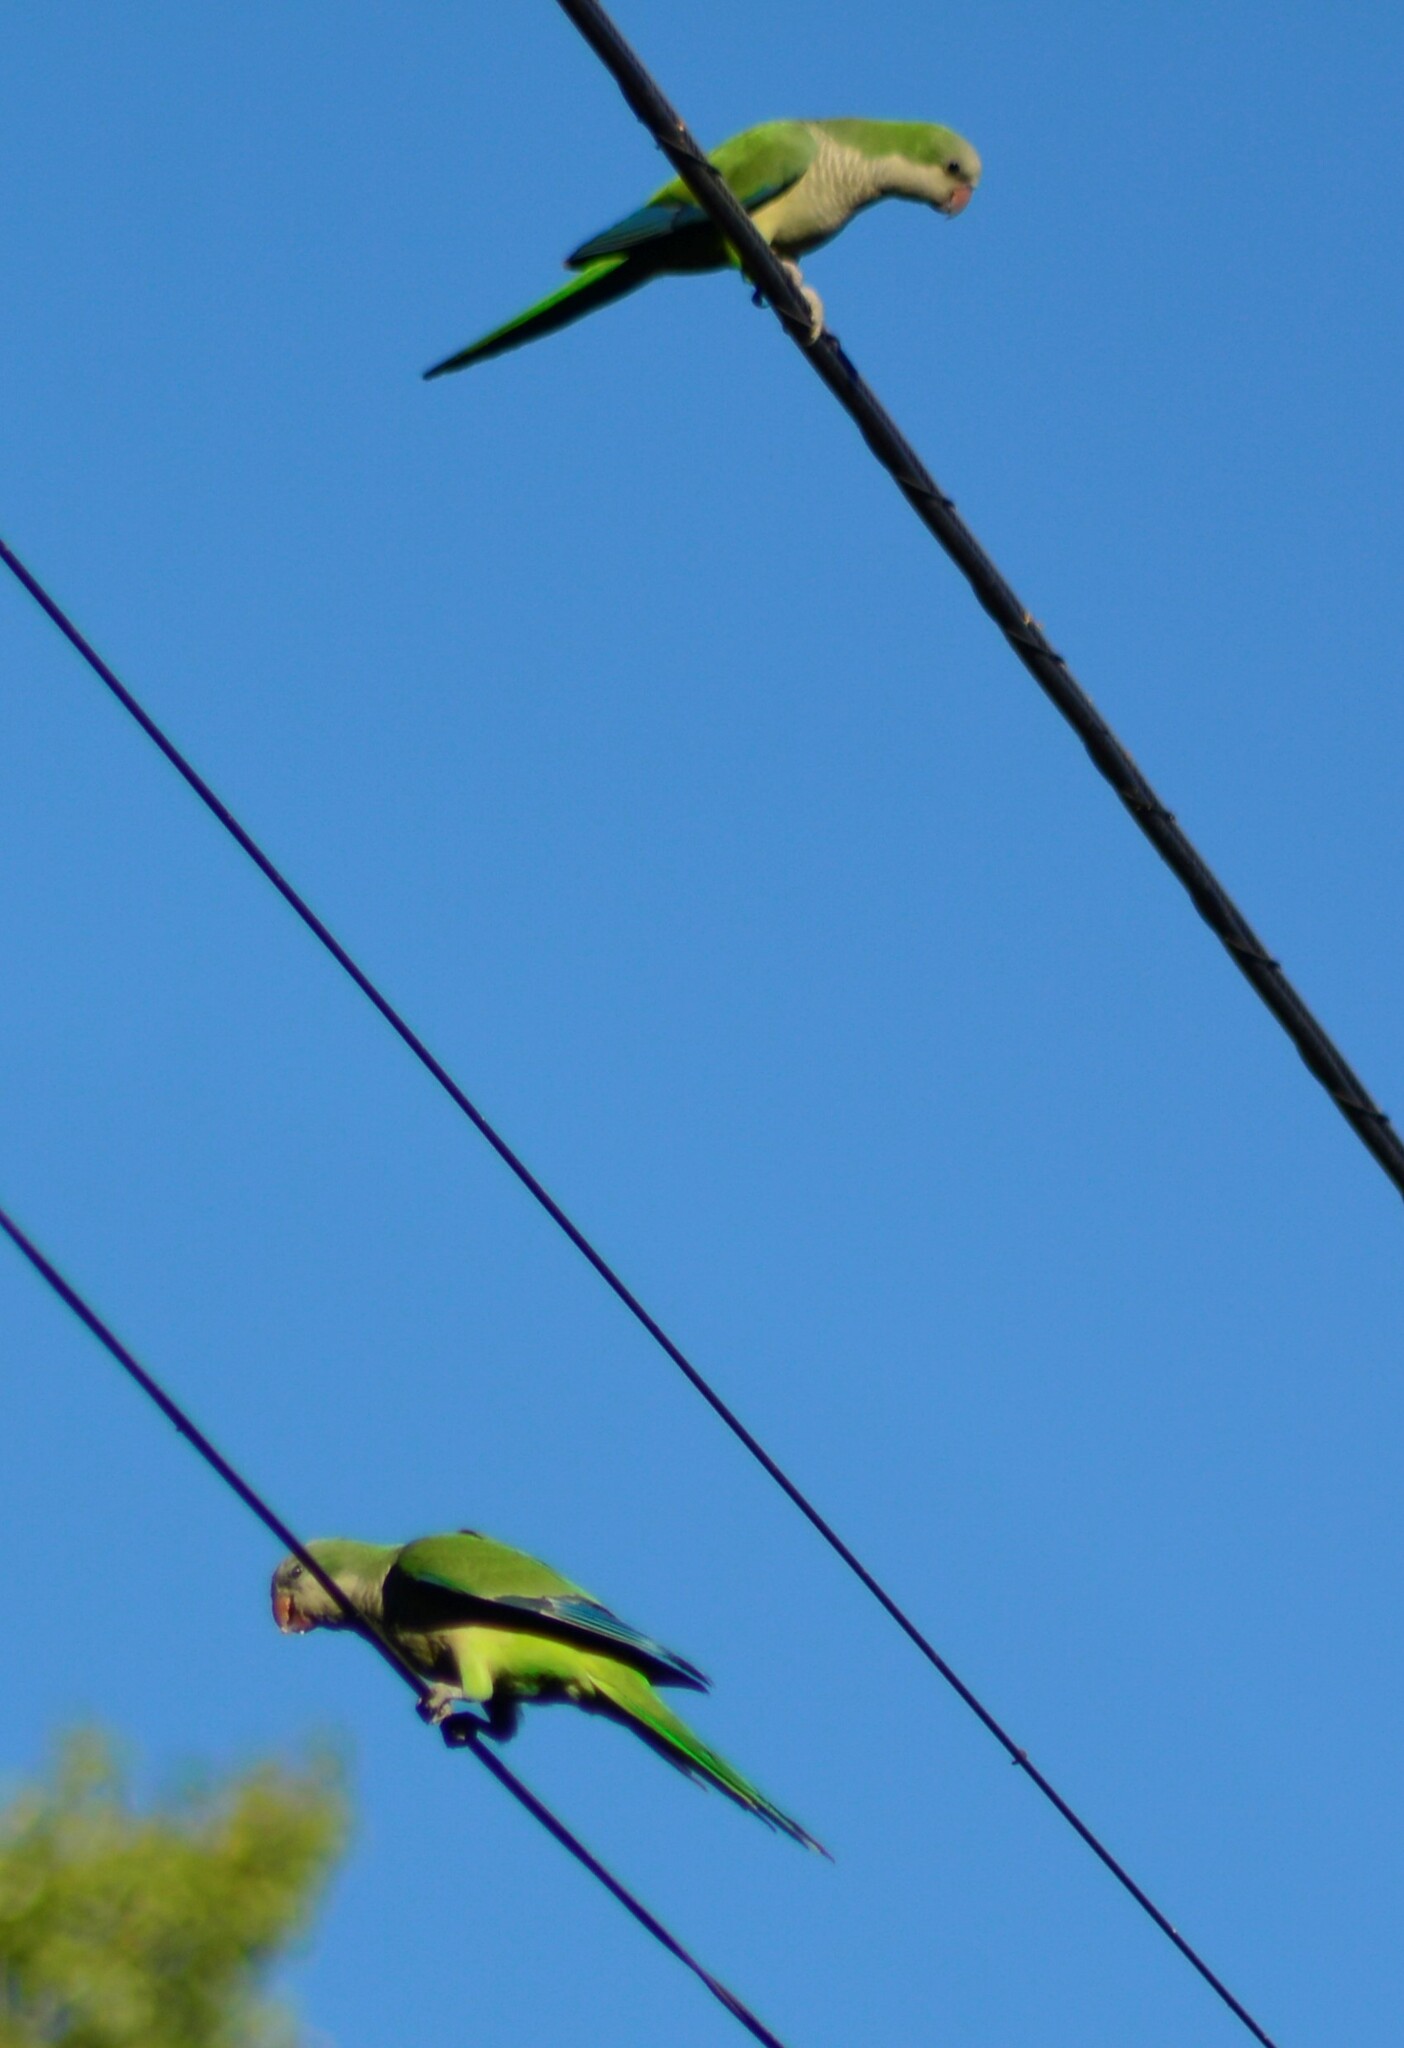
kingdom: Animalia
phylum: Chordata
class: Aves
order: Psittaciformes
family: Psittacidae
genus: Myiopsitta
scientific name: Myiopsitta monachus
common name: Monk parakeet
